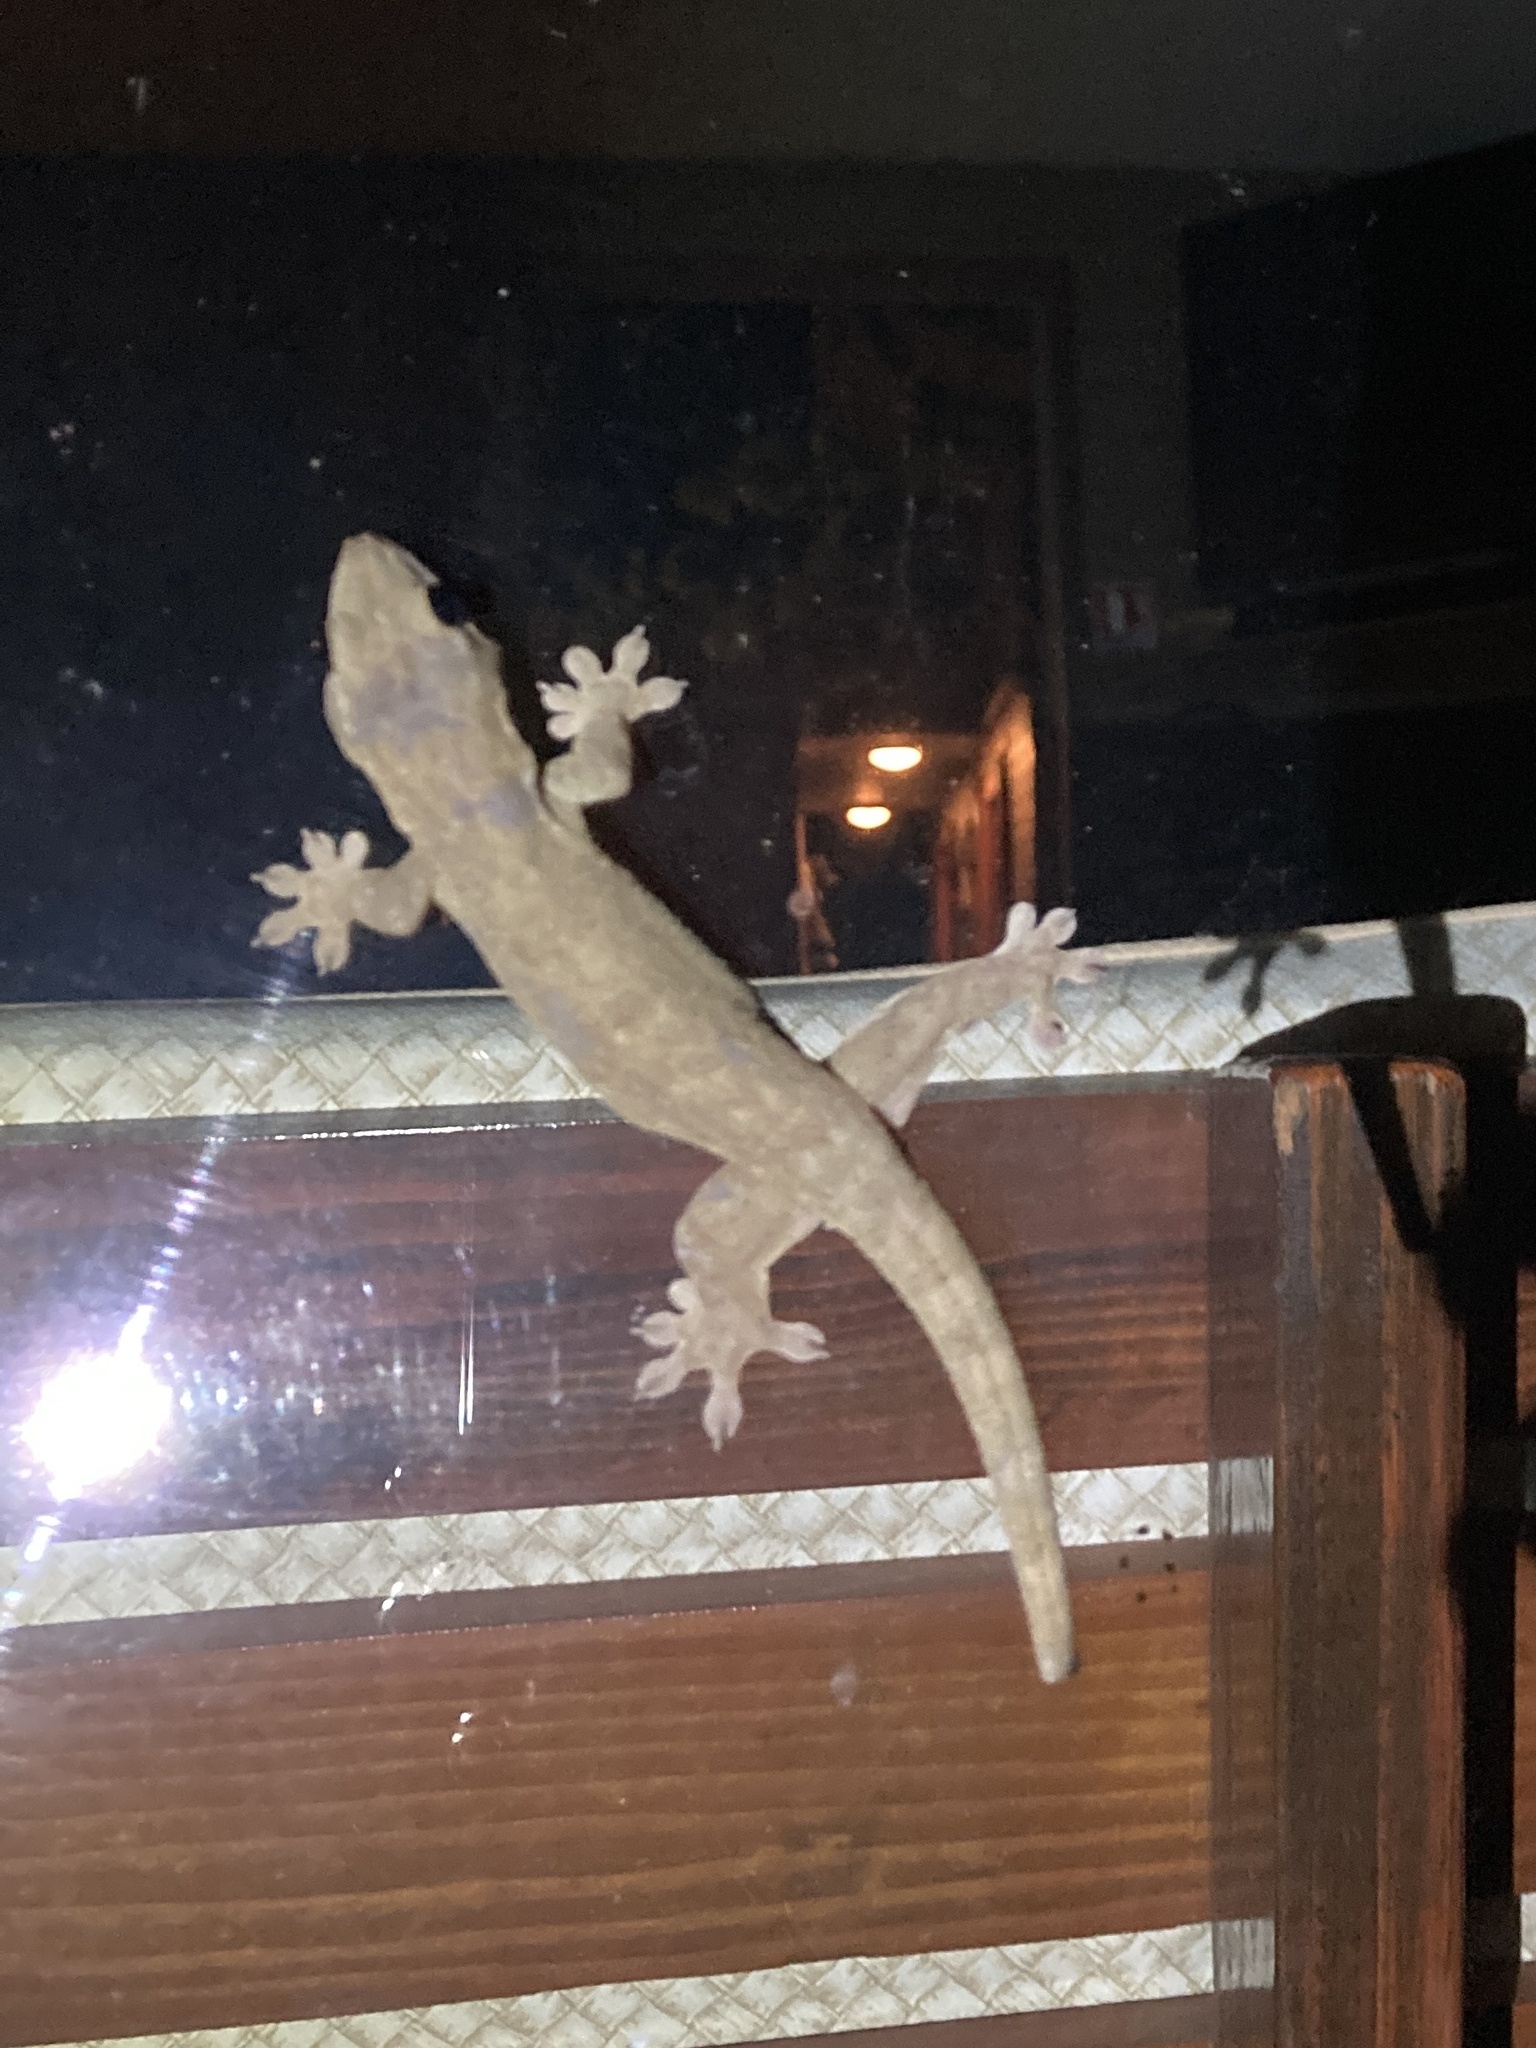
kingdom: Animalia
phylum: Chordata
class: Squamata
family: Gekkonidae
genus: Gehyra
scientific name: Gehyra oceanica
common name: Pacific dtella
